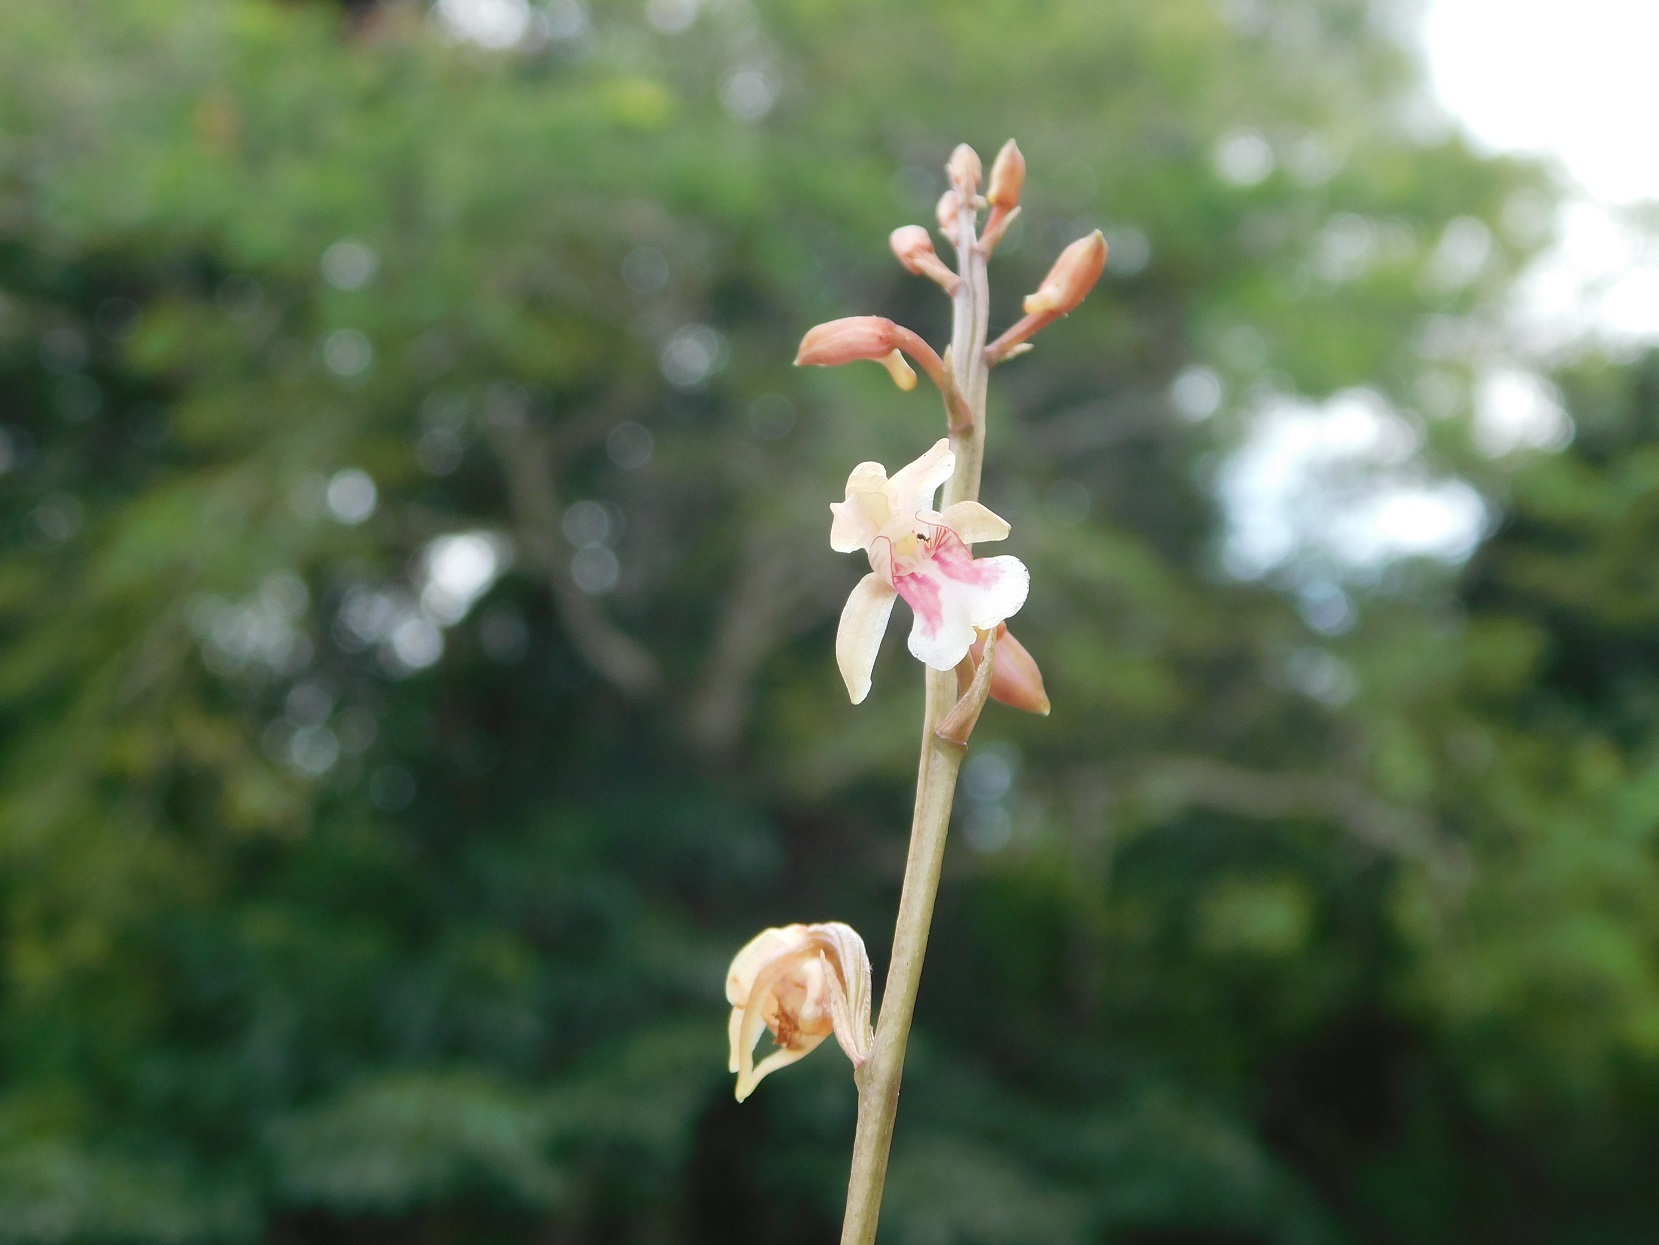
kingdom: Plantae
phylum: Tracheophyta
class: Liliopsida
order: Asparagales
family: Orchidaceae
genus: Eulophia
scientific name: Eulophia maculata
